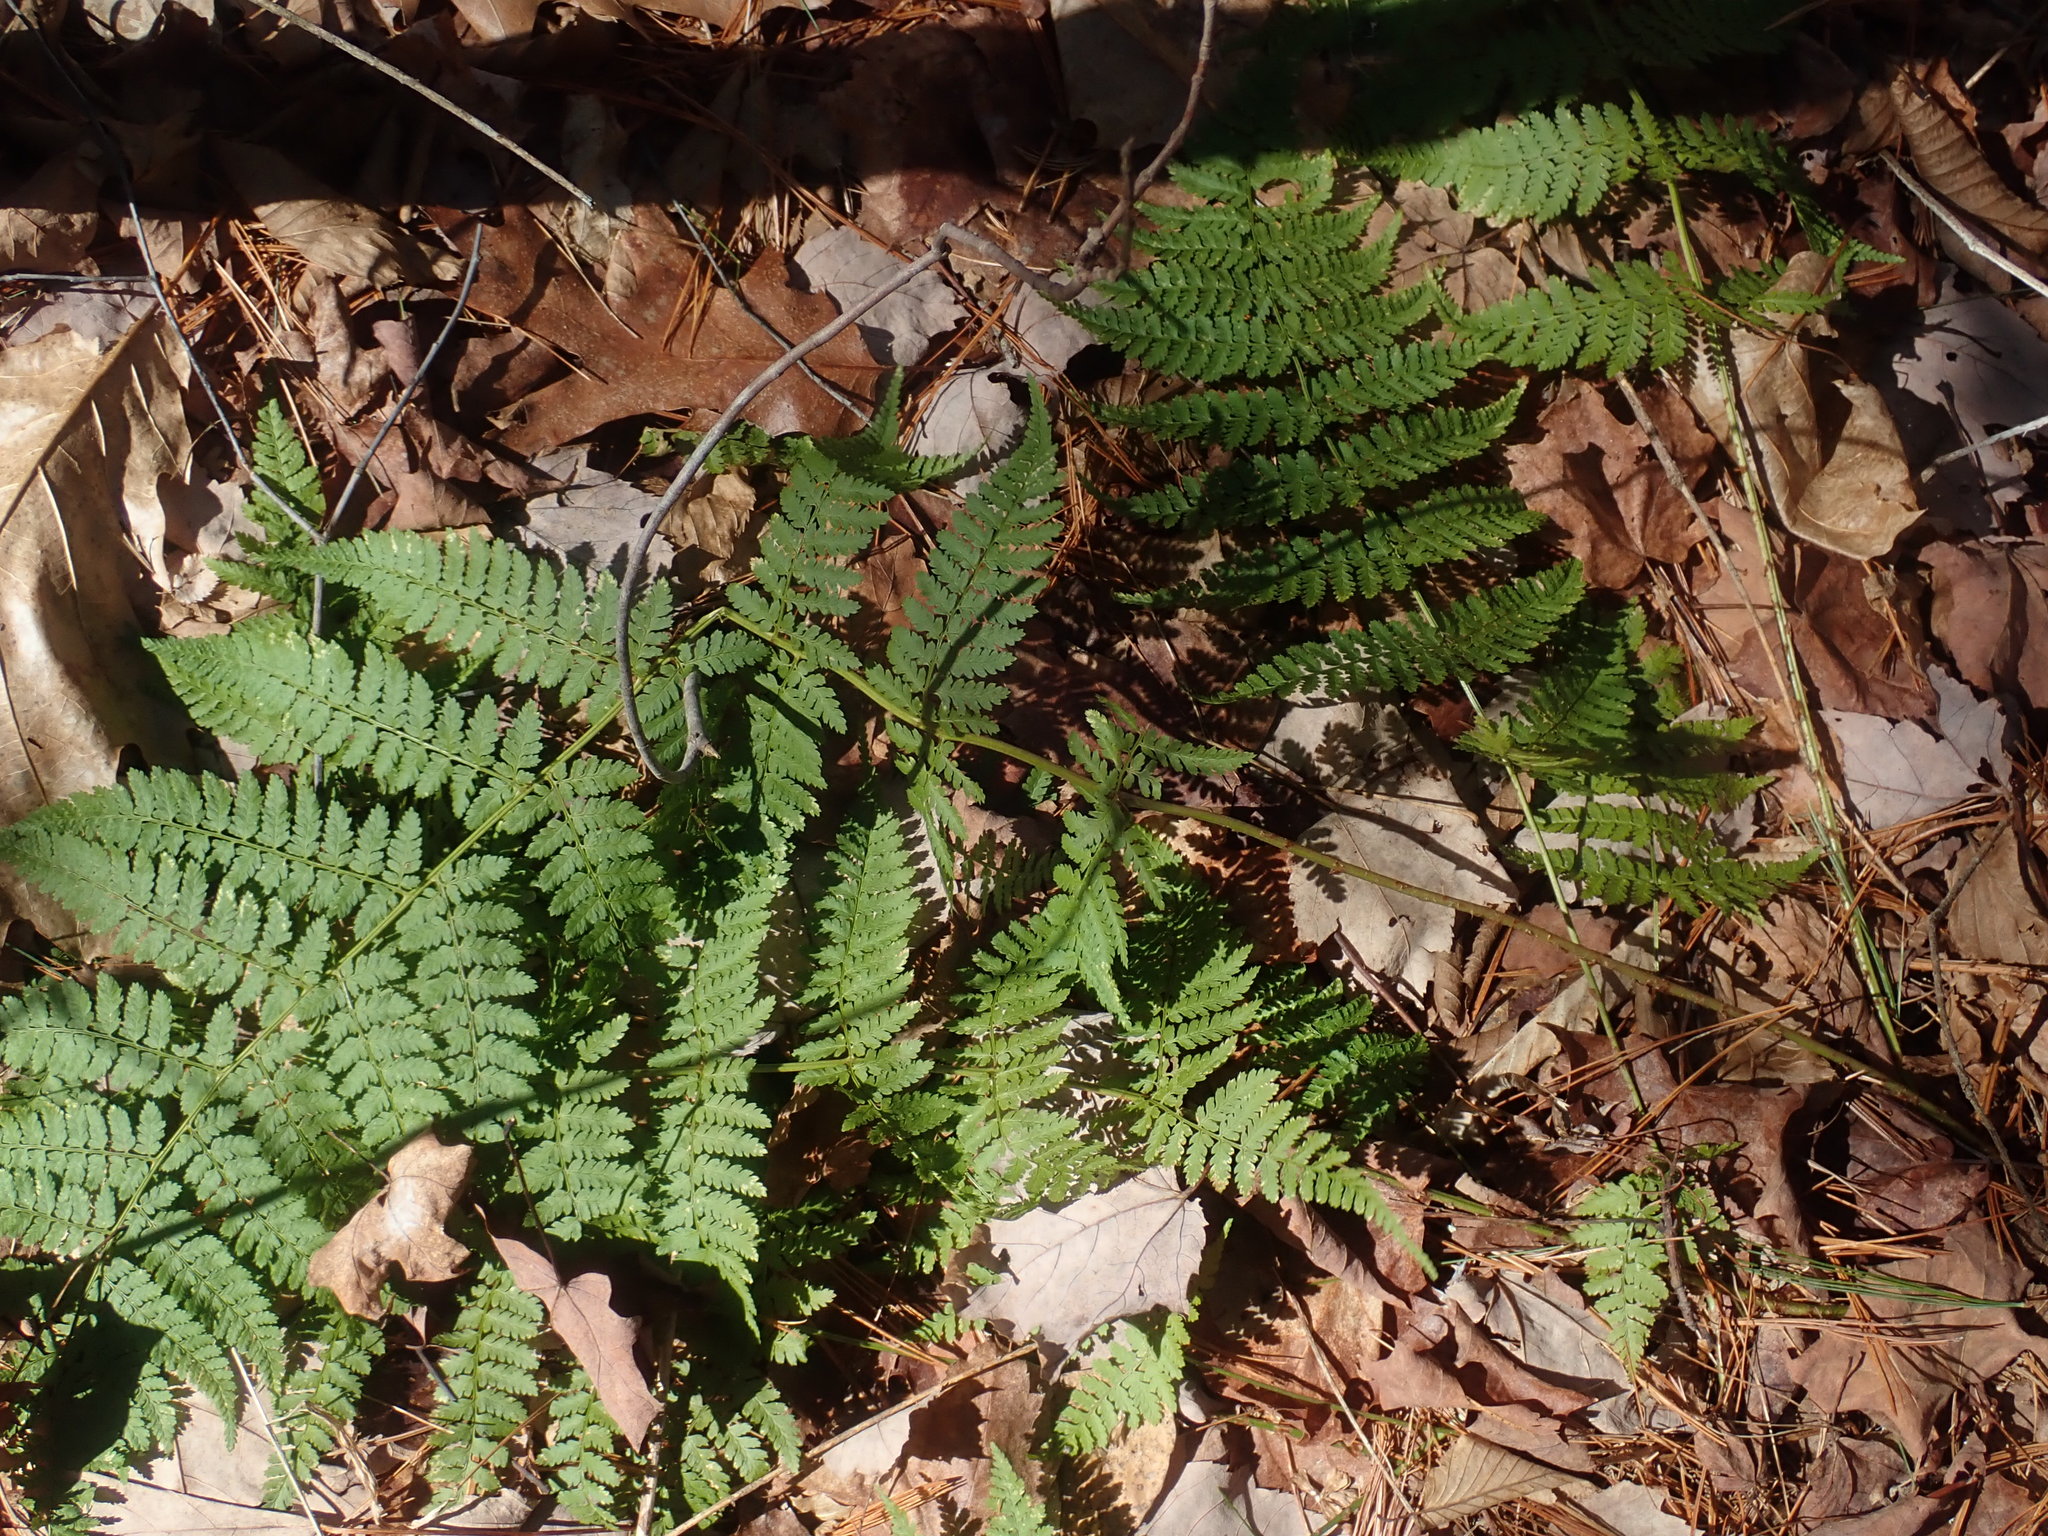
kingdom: Plantae
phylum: Tracheophyta
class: Polypodiopsida
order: Polypodiales
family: Dryopteridaceae
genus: Dryopteris
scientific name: Dryopteris intermedia
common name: Evergreen wood fern
